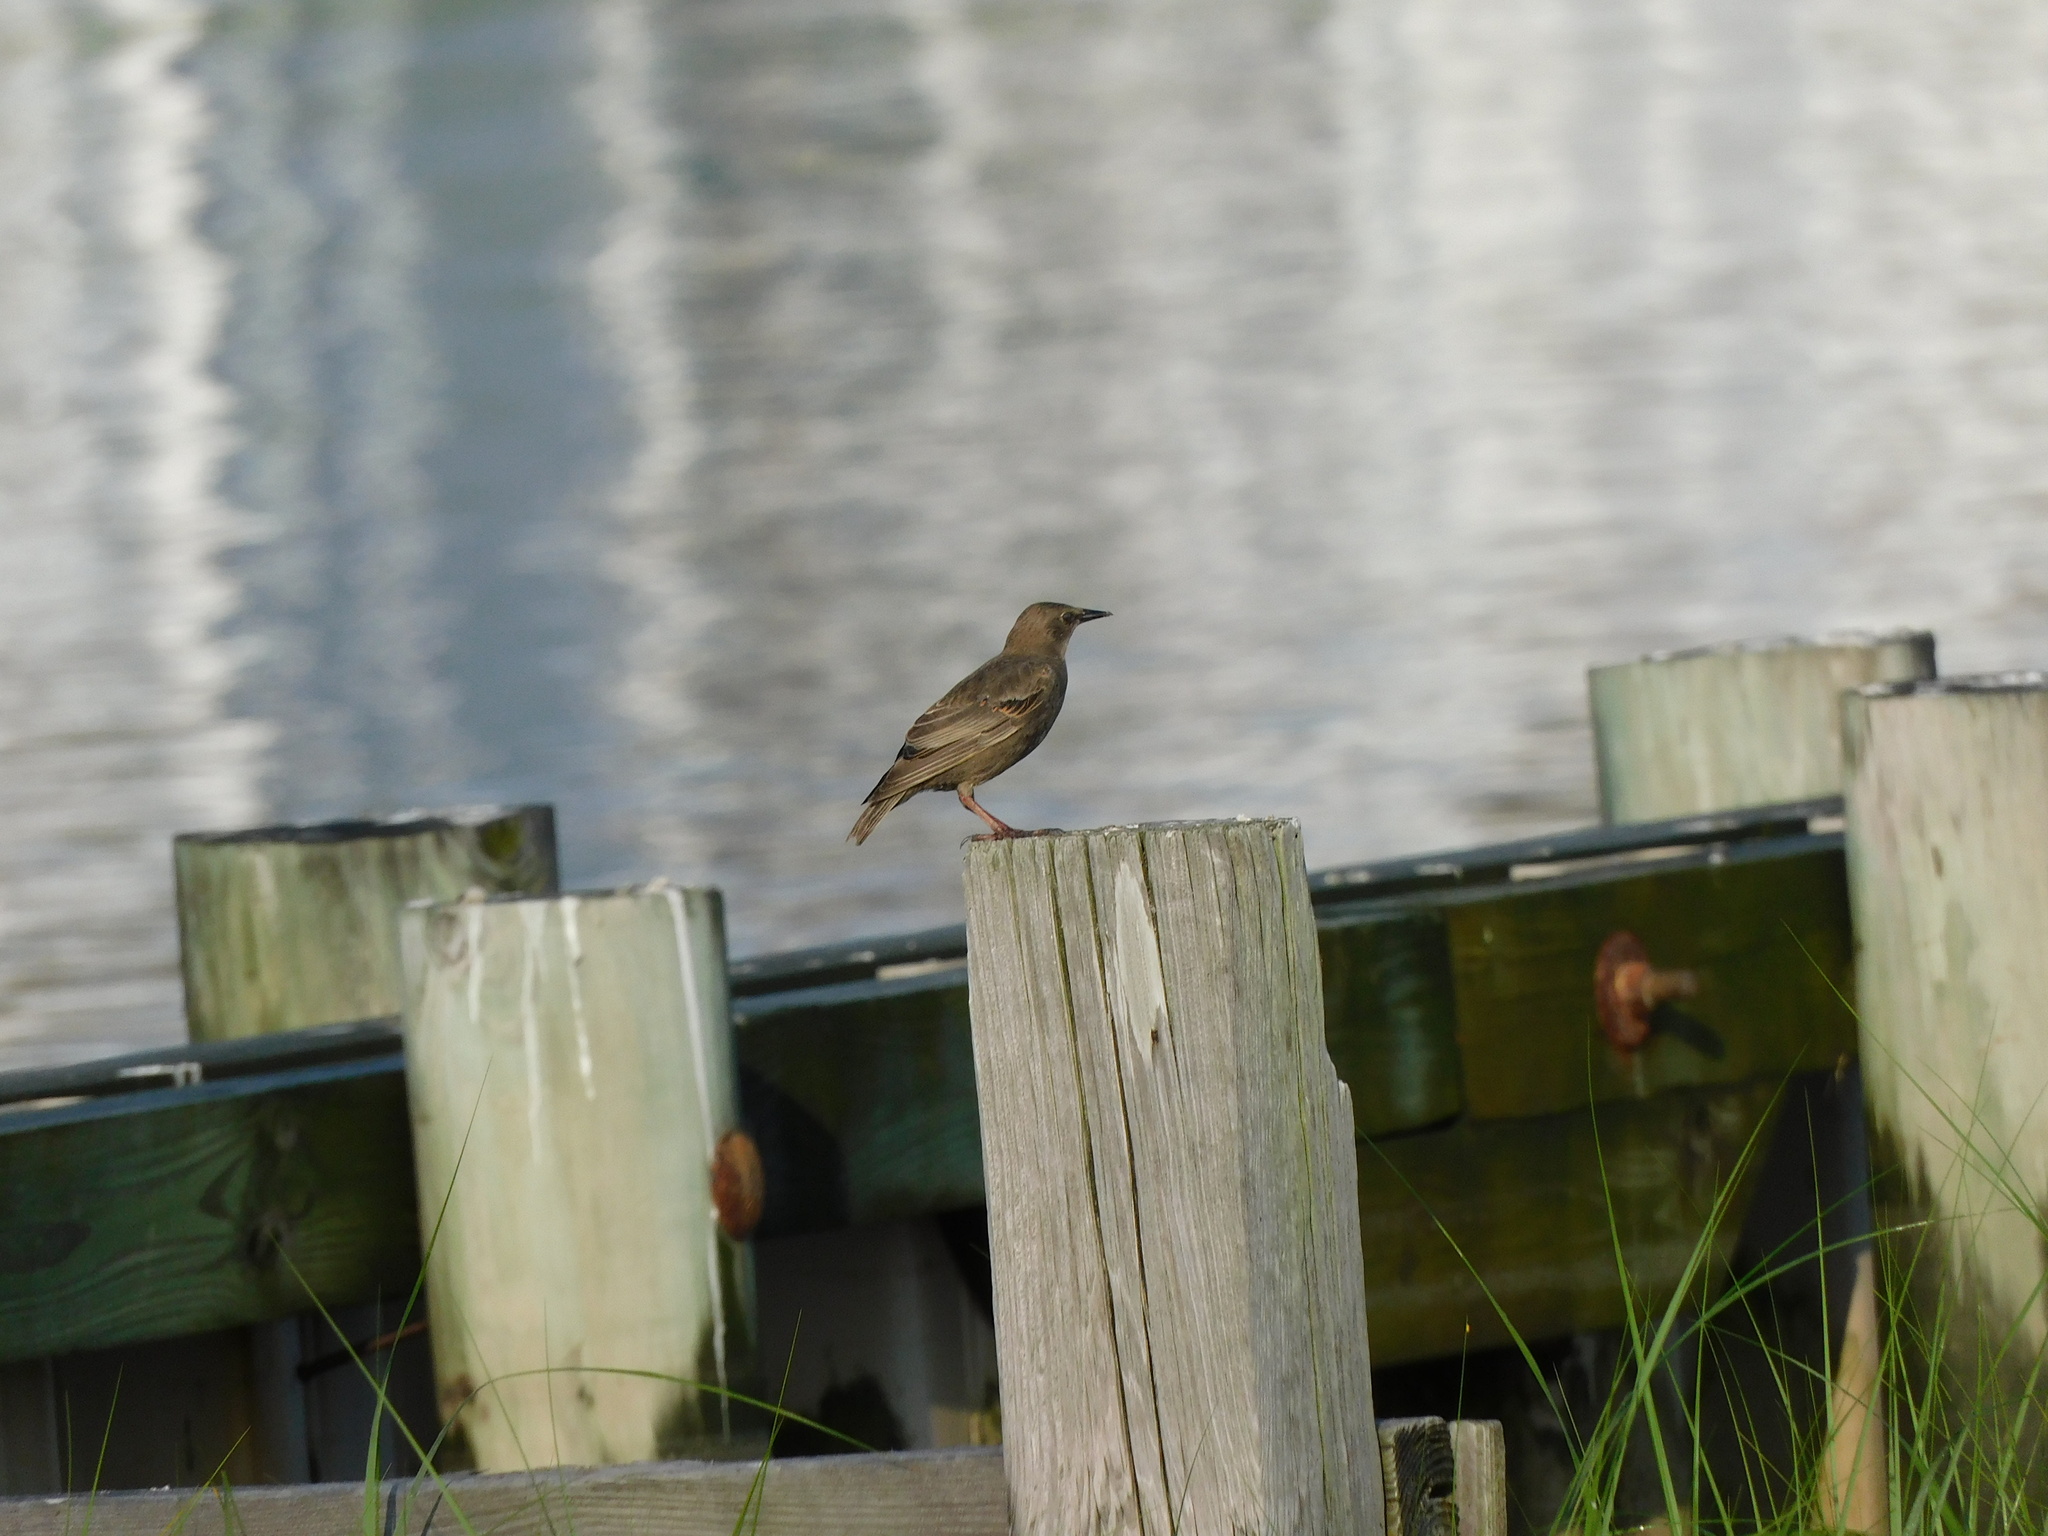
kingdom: Animalia
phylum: Chordata
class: Aves
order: Passeriformes
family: Sturnidae
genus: Sturnus
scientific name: Sturnus vulgaris
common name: Common starling
